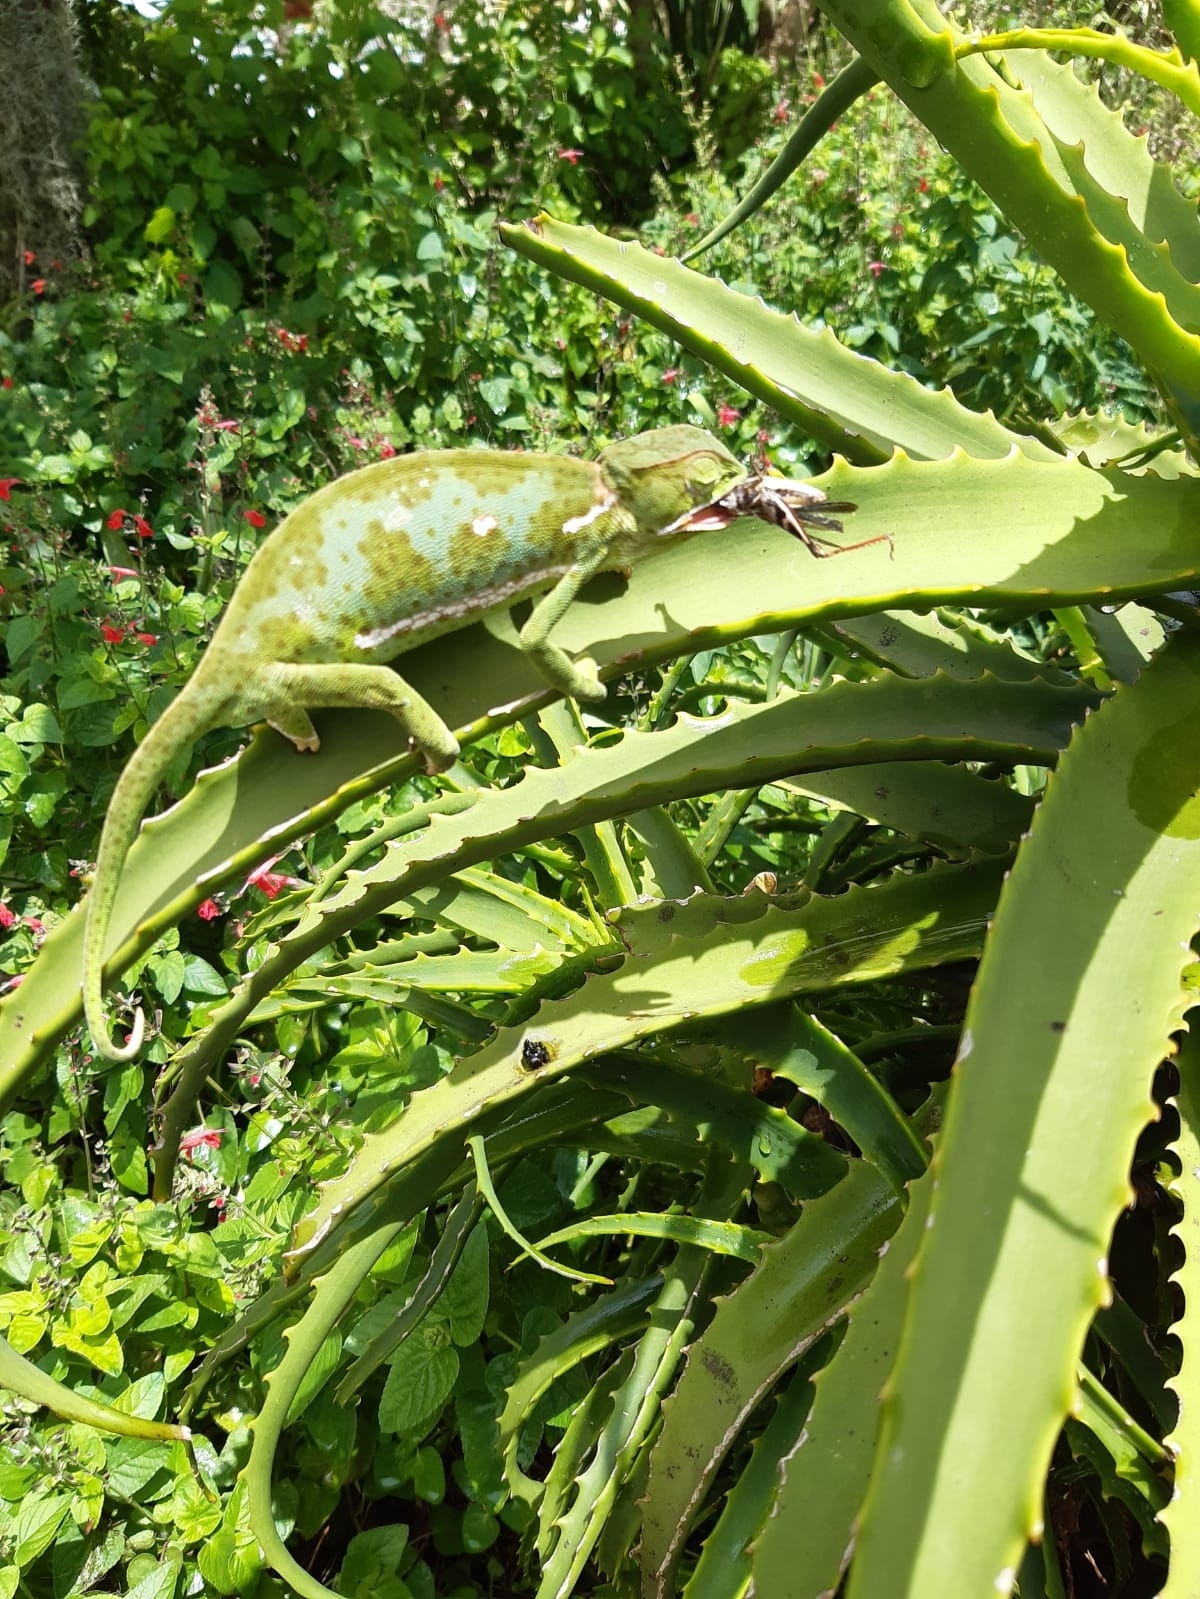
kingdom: Animalia
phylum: Chordata
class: Squamata
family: Chamaeleonidae
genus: Chamaeleo
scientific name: Chamaeleo dilepis
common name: Flapneck chameleon
